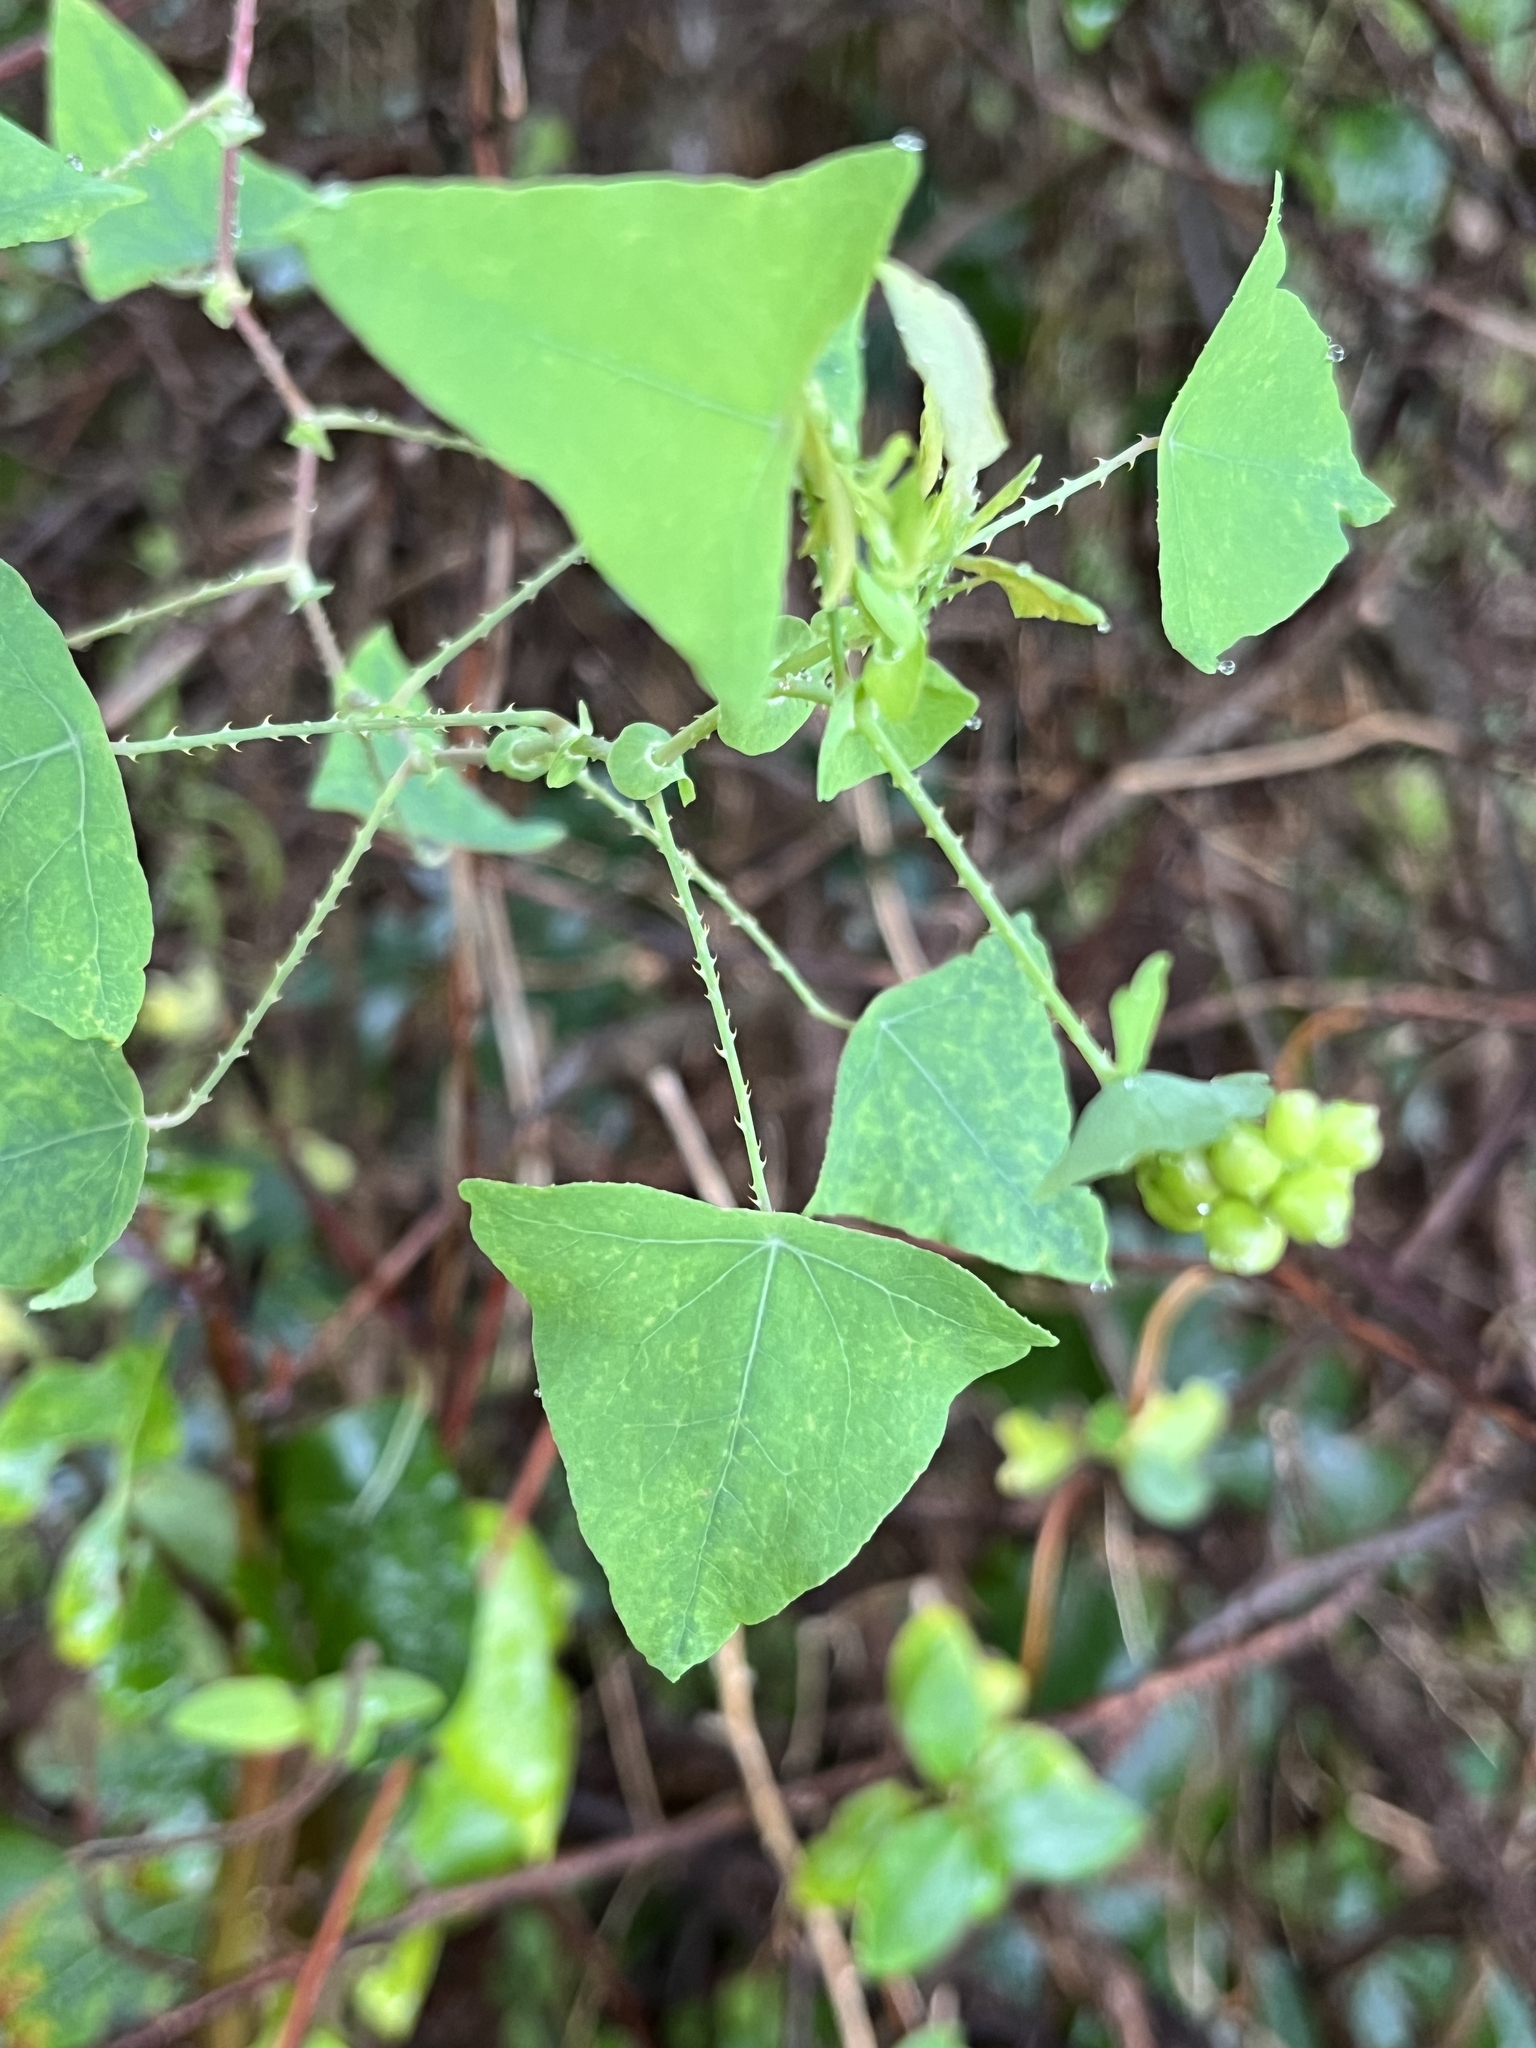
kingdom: Plantae
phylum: Tracheophyta
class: Magnoliopsida
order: Caryophyllales
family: Polygonaceae
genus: Persicaria
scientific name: Persicaria perfoliata
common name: Asiatic tearthumb
